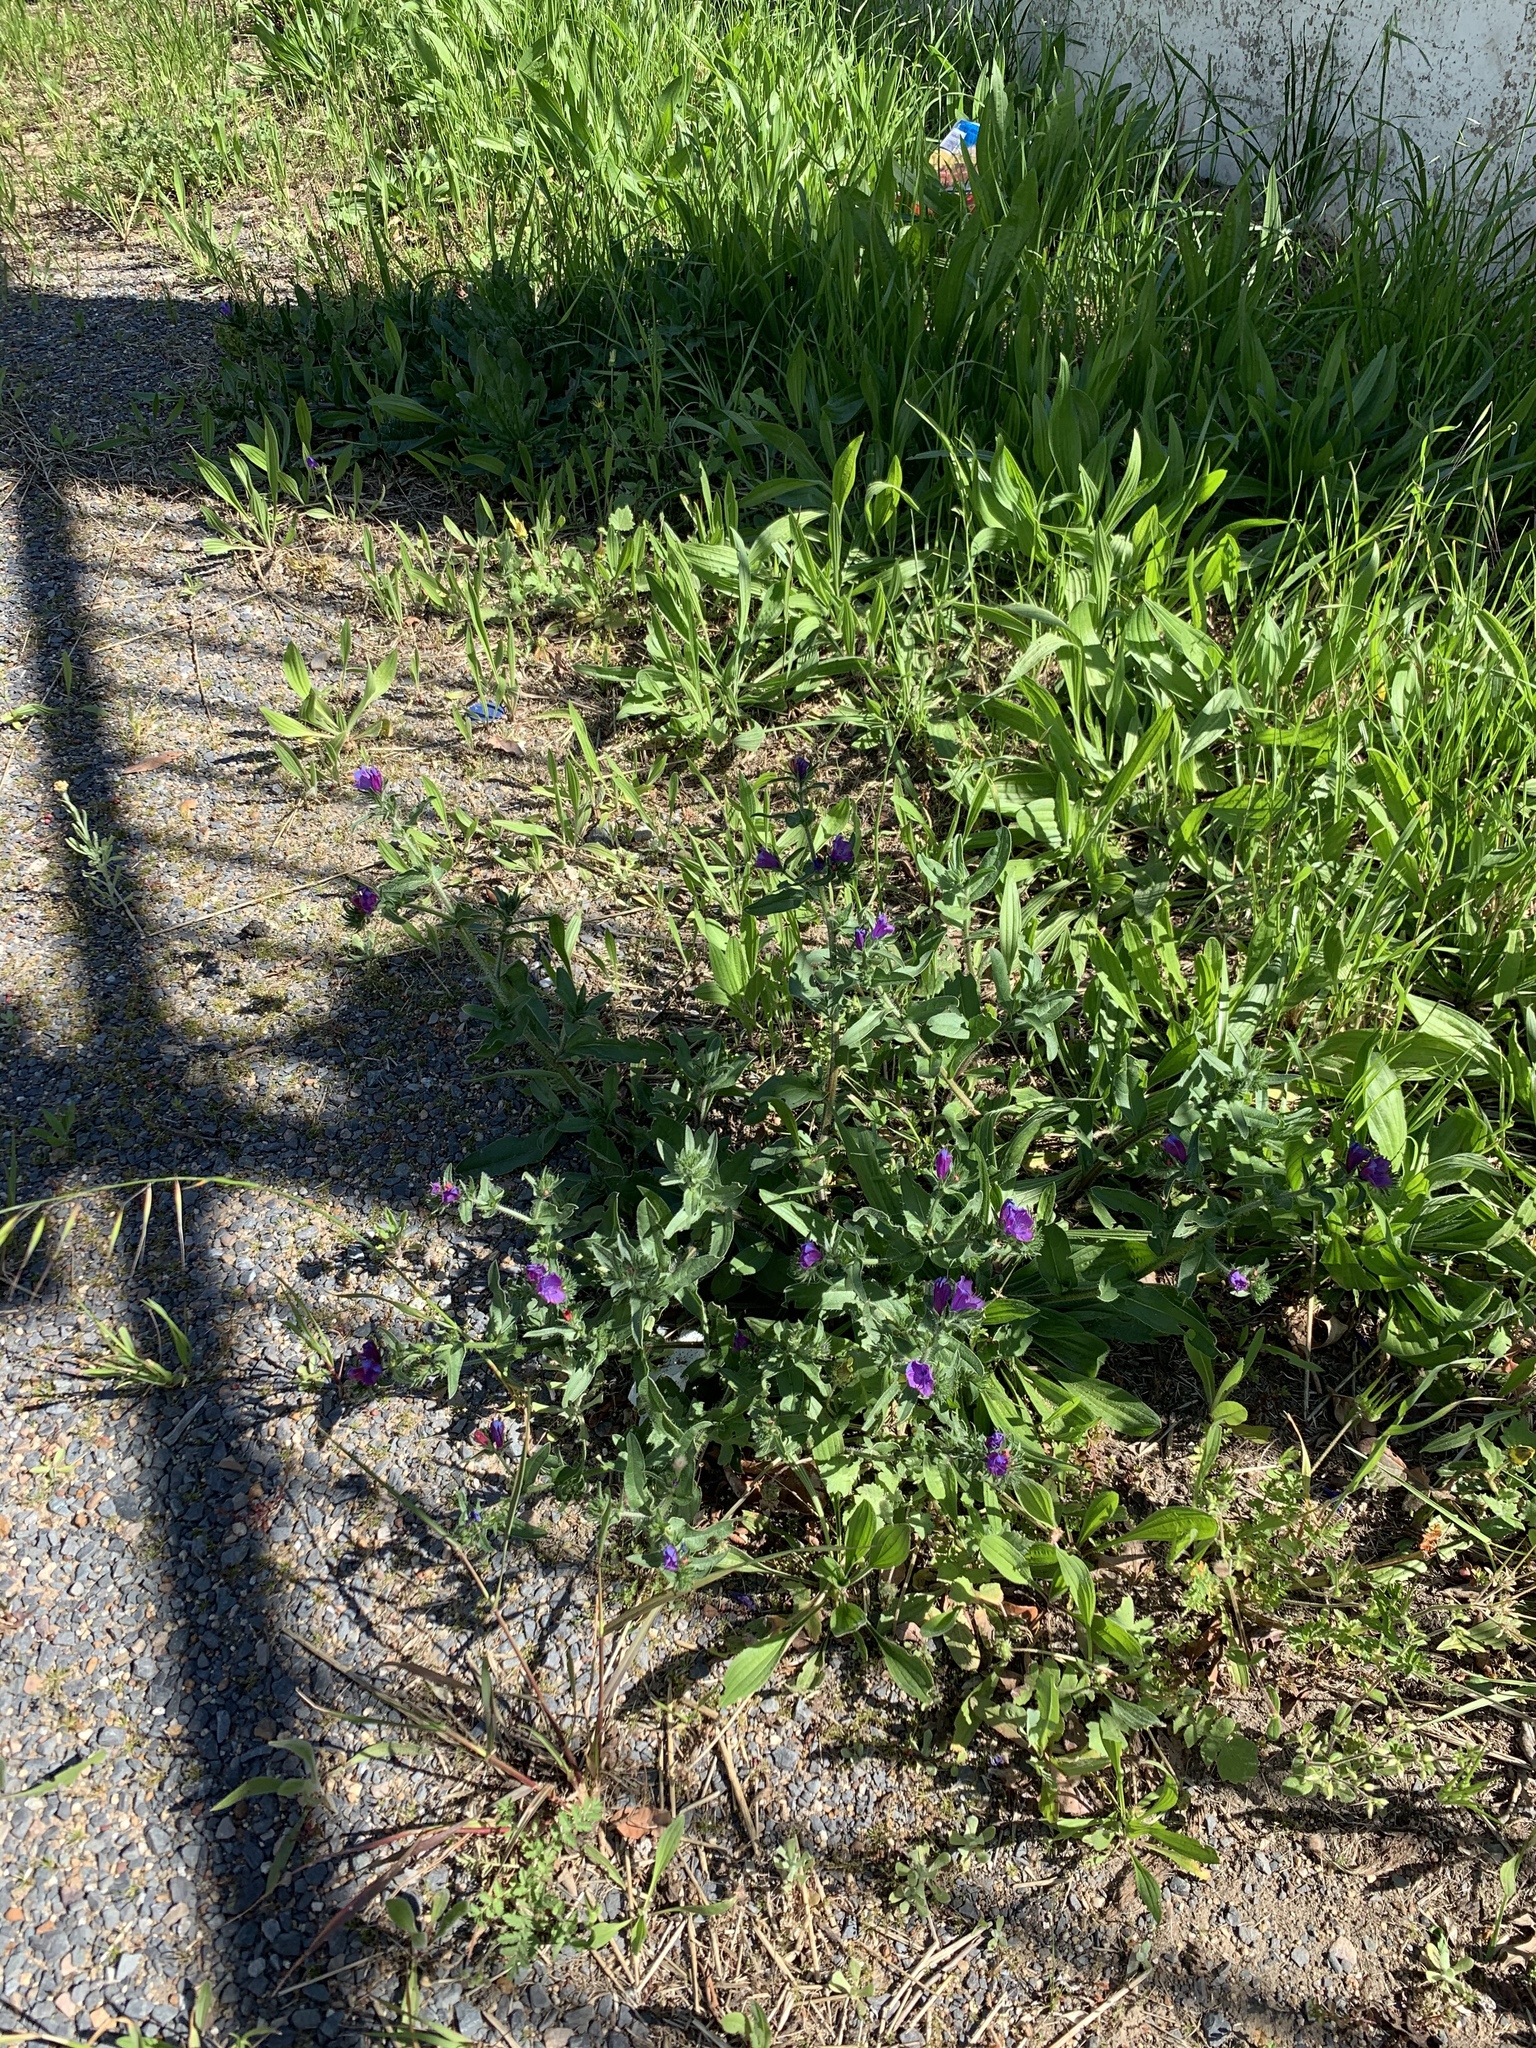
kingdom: Plantae
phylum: Tracheophyta
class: Magnoliopsida
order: Boraginales
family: Boraginaceae
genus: Echium
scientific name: Echium plantagineum
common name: Purple viper's-bugloss
